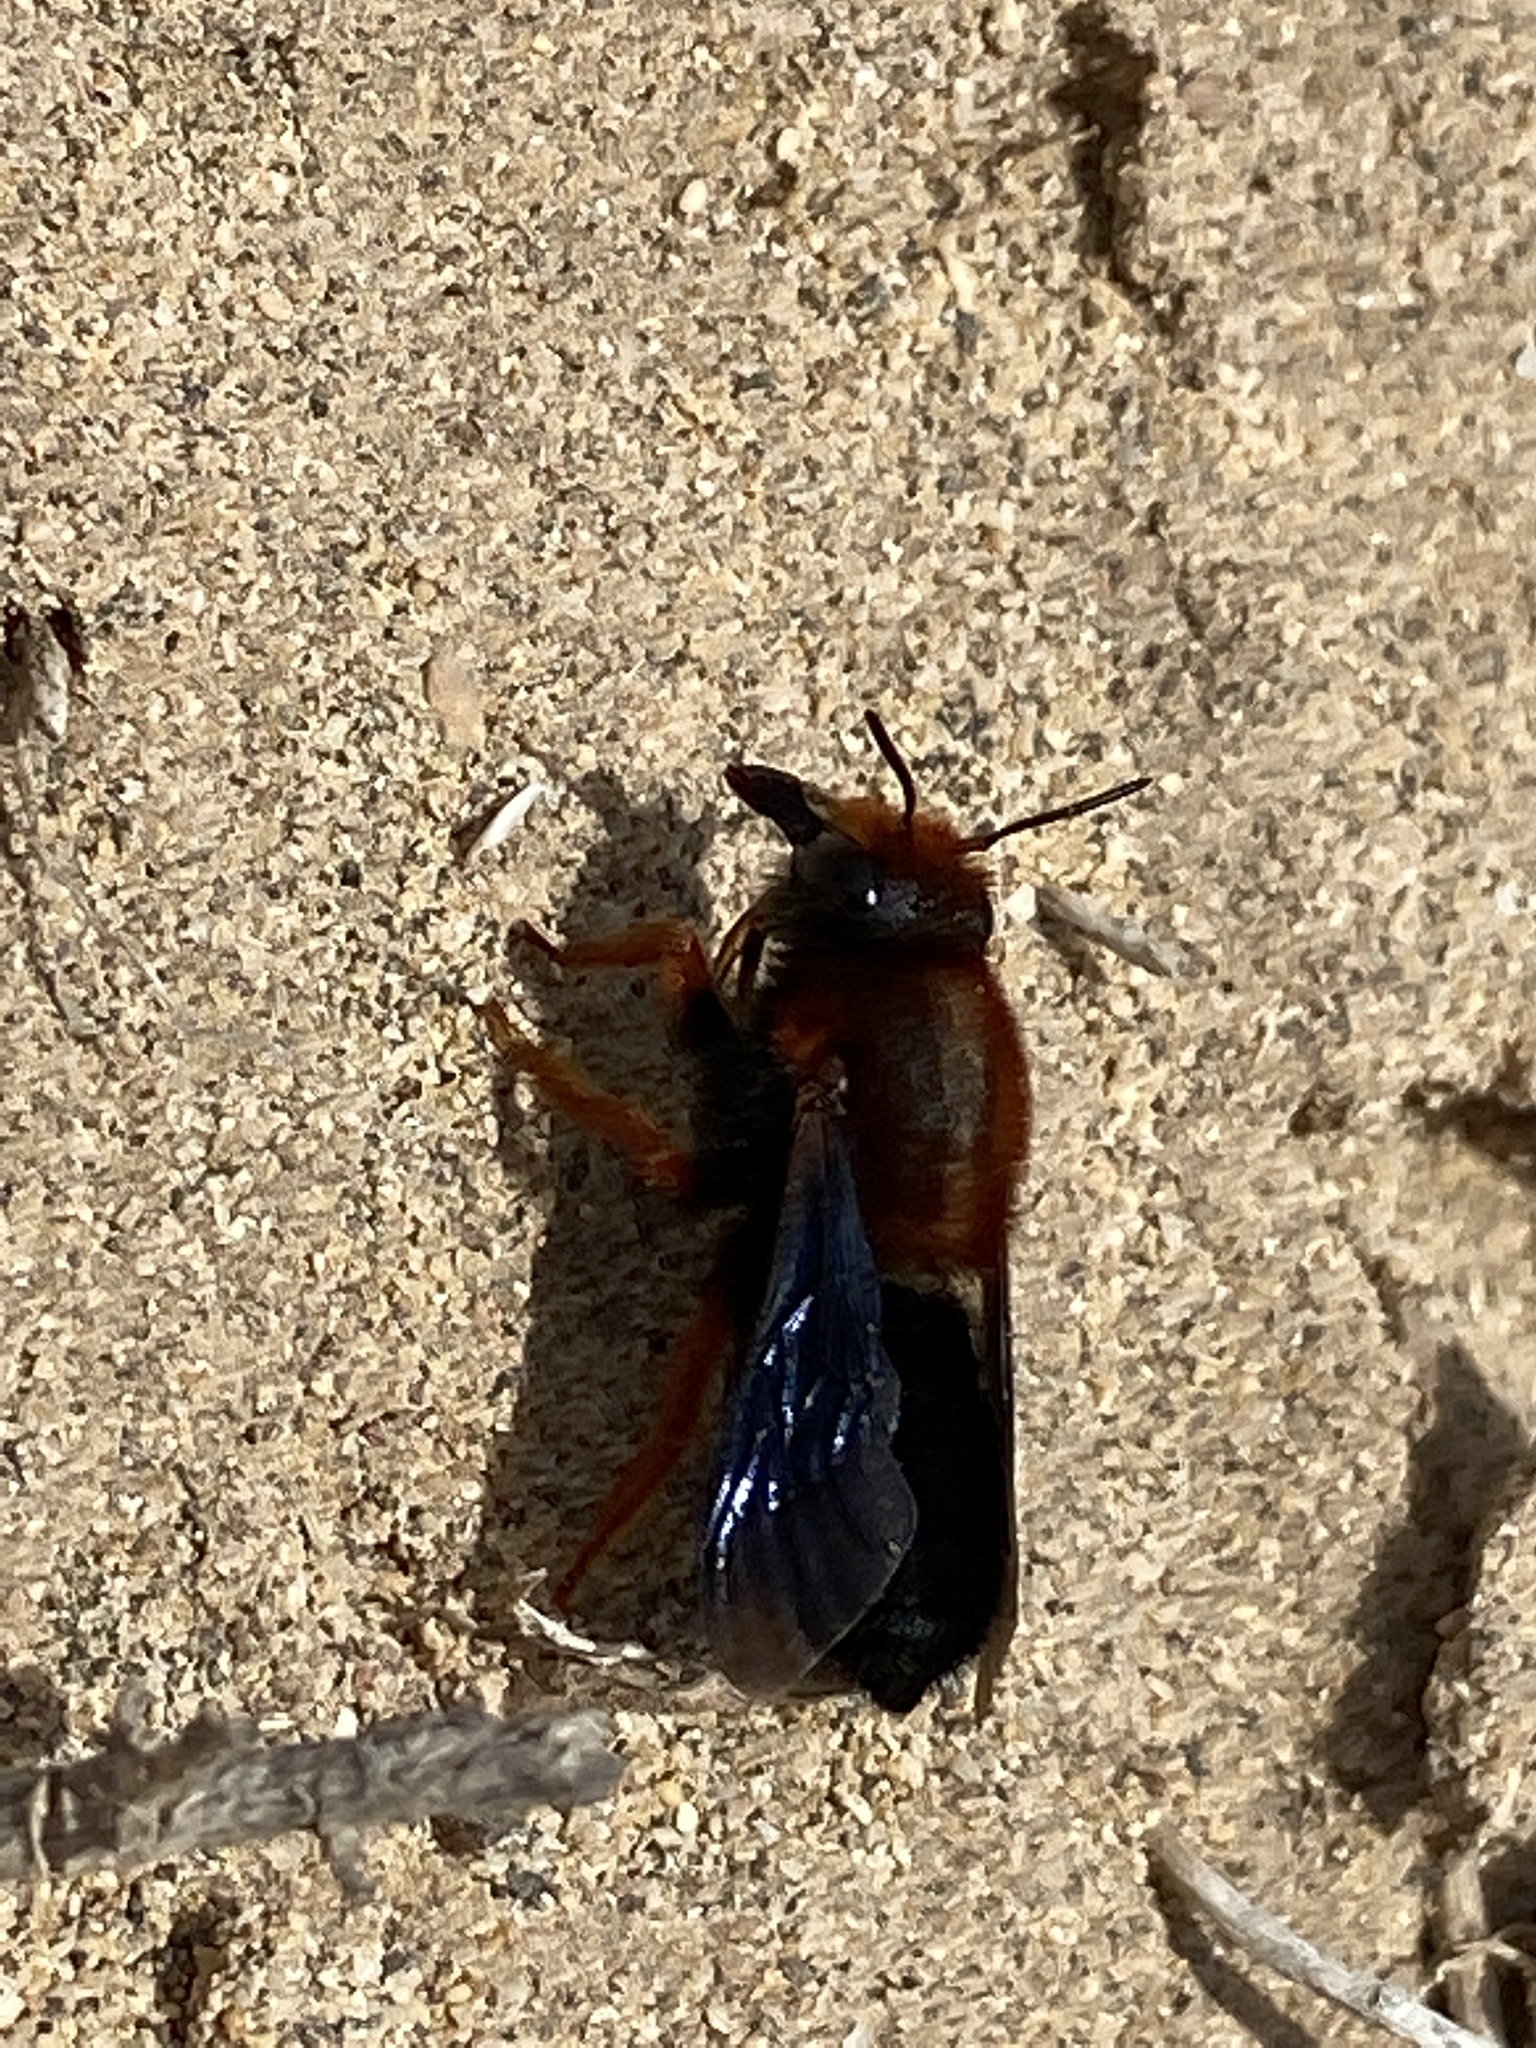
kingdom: Animalia
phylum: Arthropoda
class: Insecta
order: Hymenoptera
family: Megachilidae
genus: Megachile
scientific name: Megachile sicula
